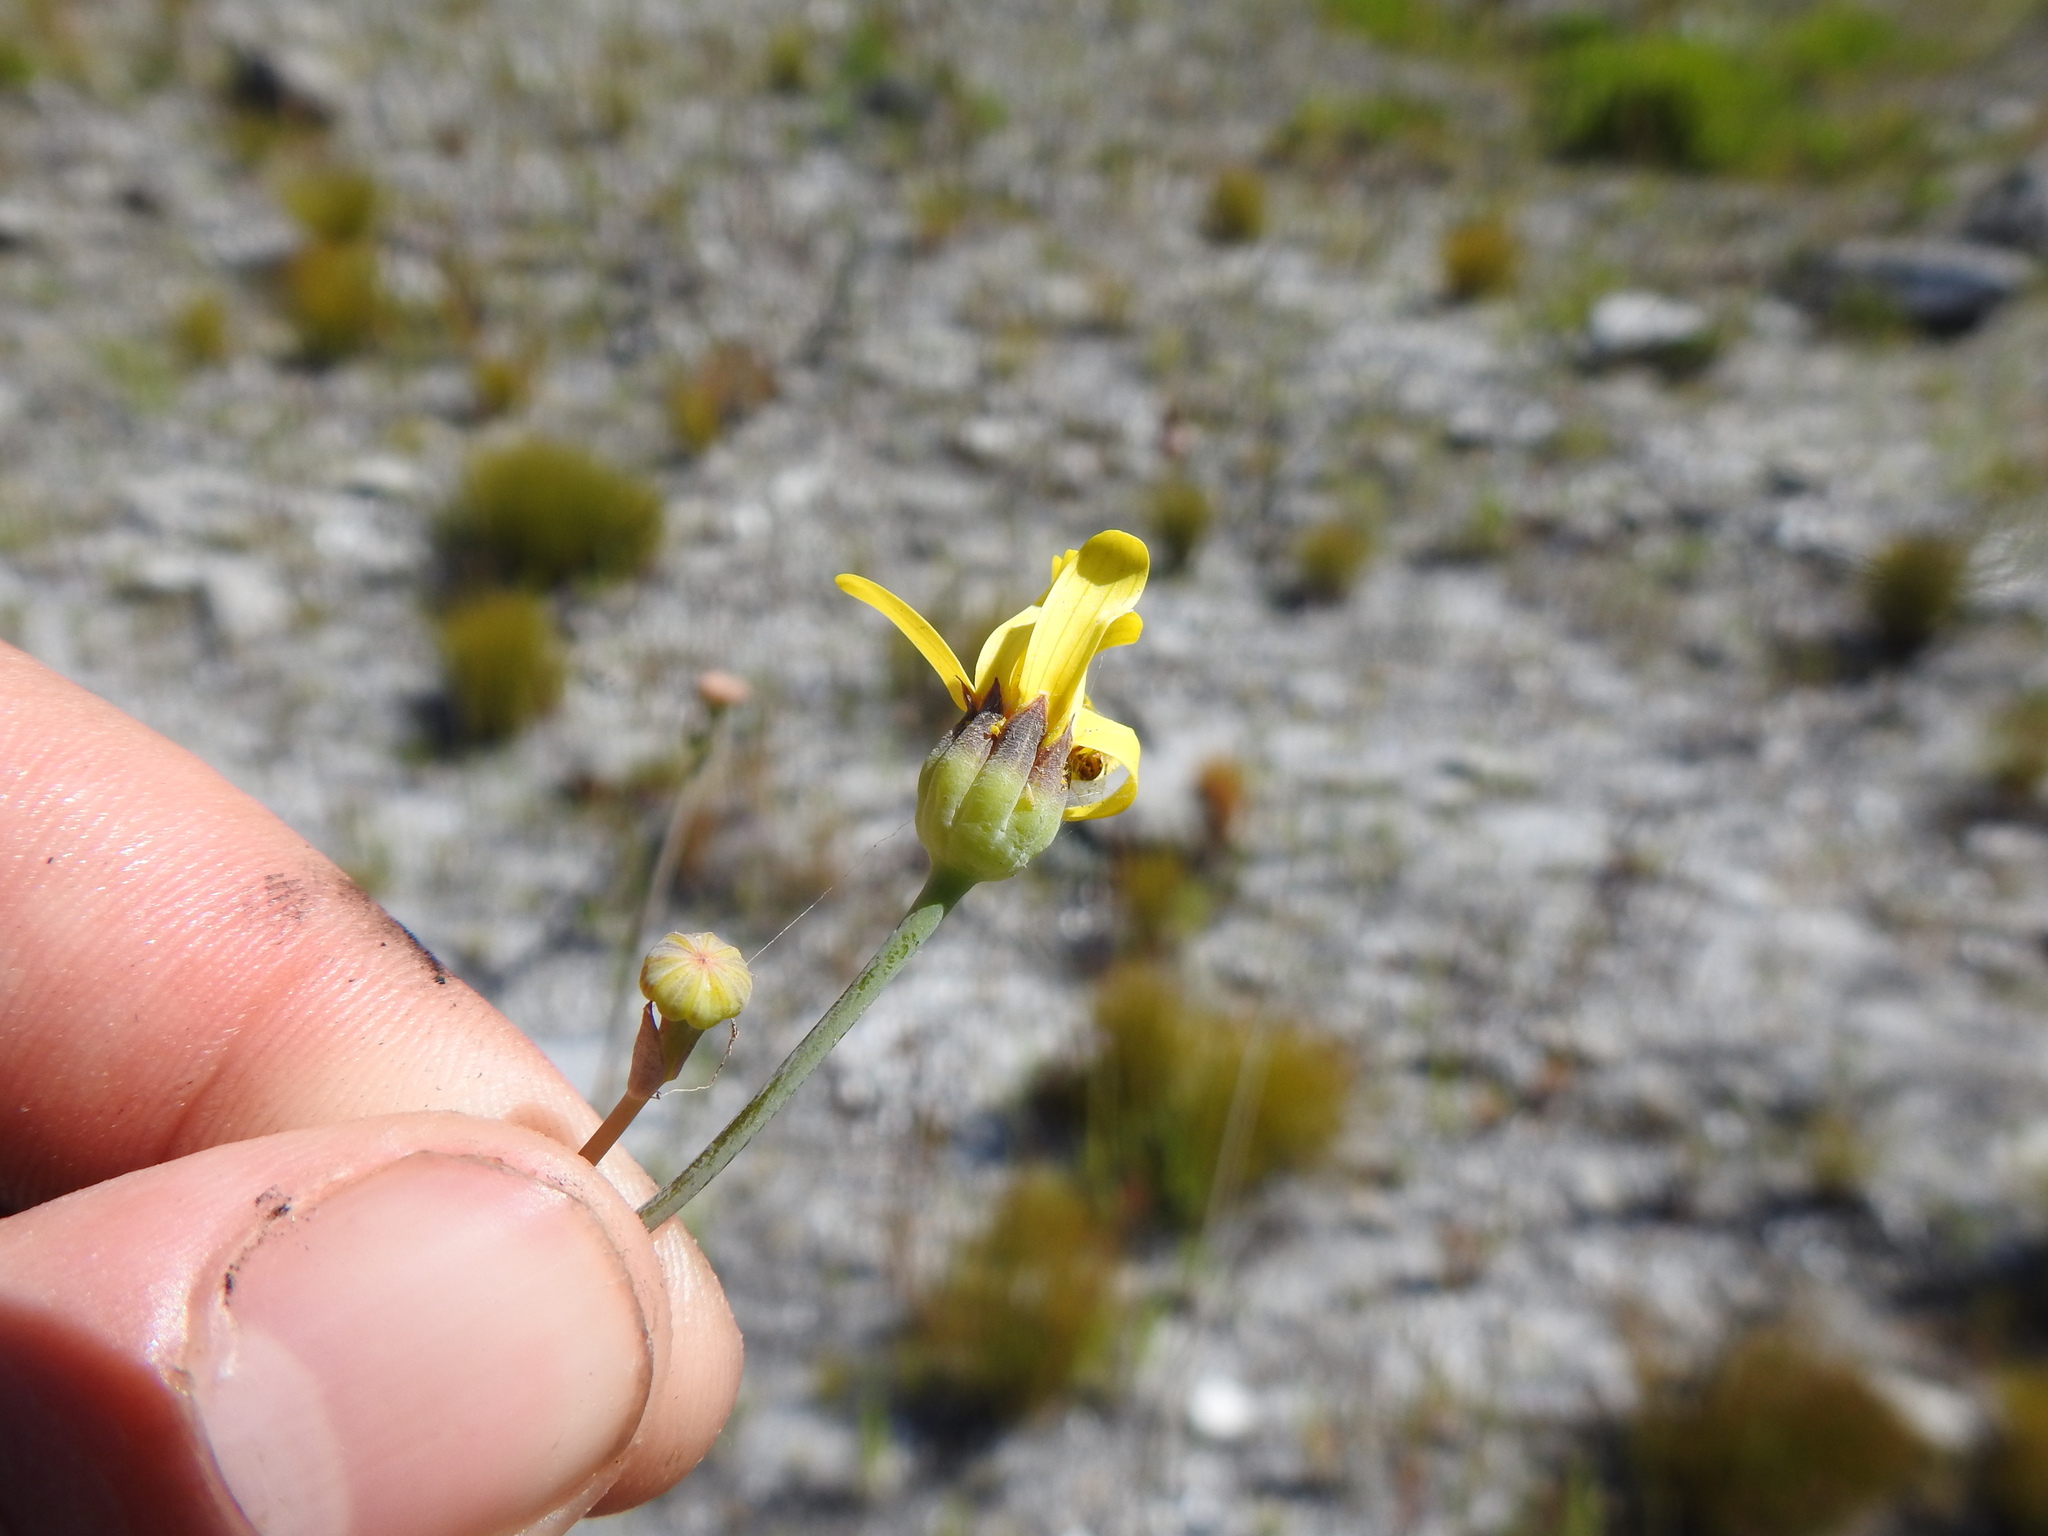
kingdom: Plantae
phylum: Tracheophyta
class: Magnoliopsida
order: Asterales
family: Asteraceae
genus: Othonna
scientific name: Othonna quinquedentata
